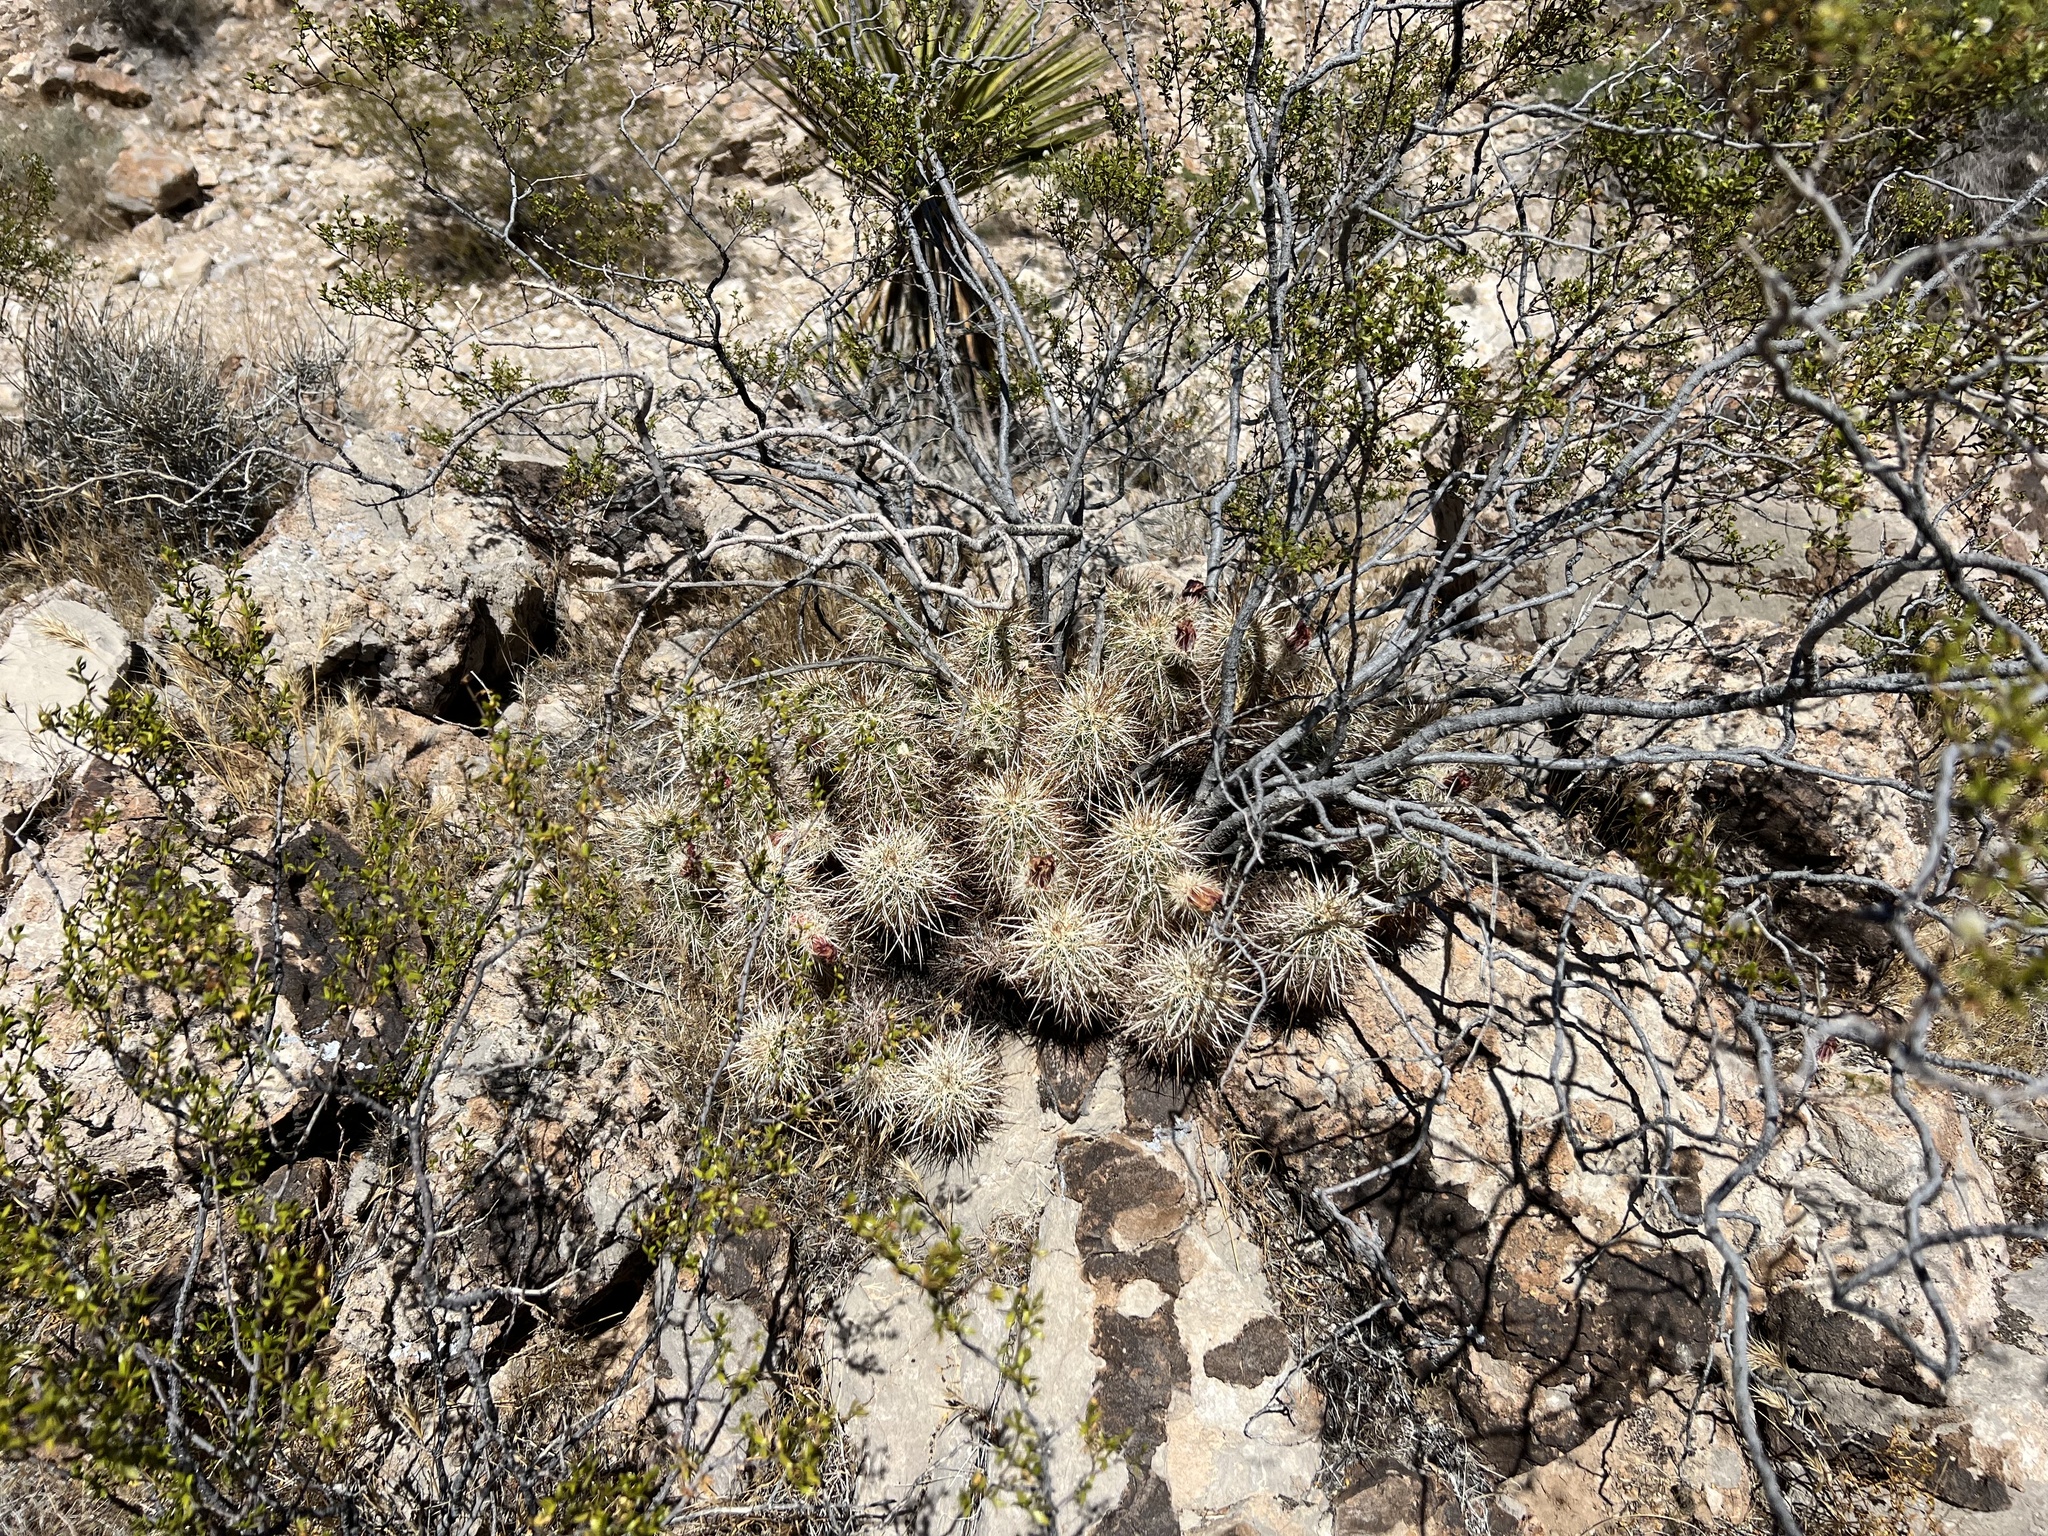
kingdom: Plantae
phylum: Tracheophyta
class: Magnoliopsida
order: Caryophyllales
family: Cactaceae
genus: Echinocereus
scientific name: Echinocereus engelmannii
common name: Engelmann's hedgehog cactus
